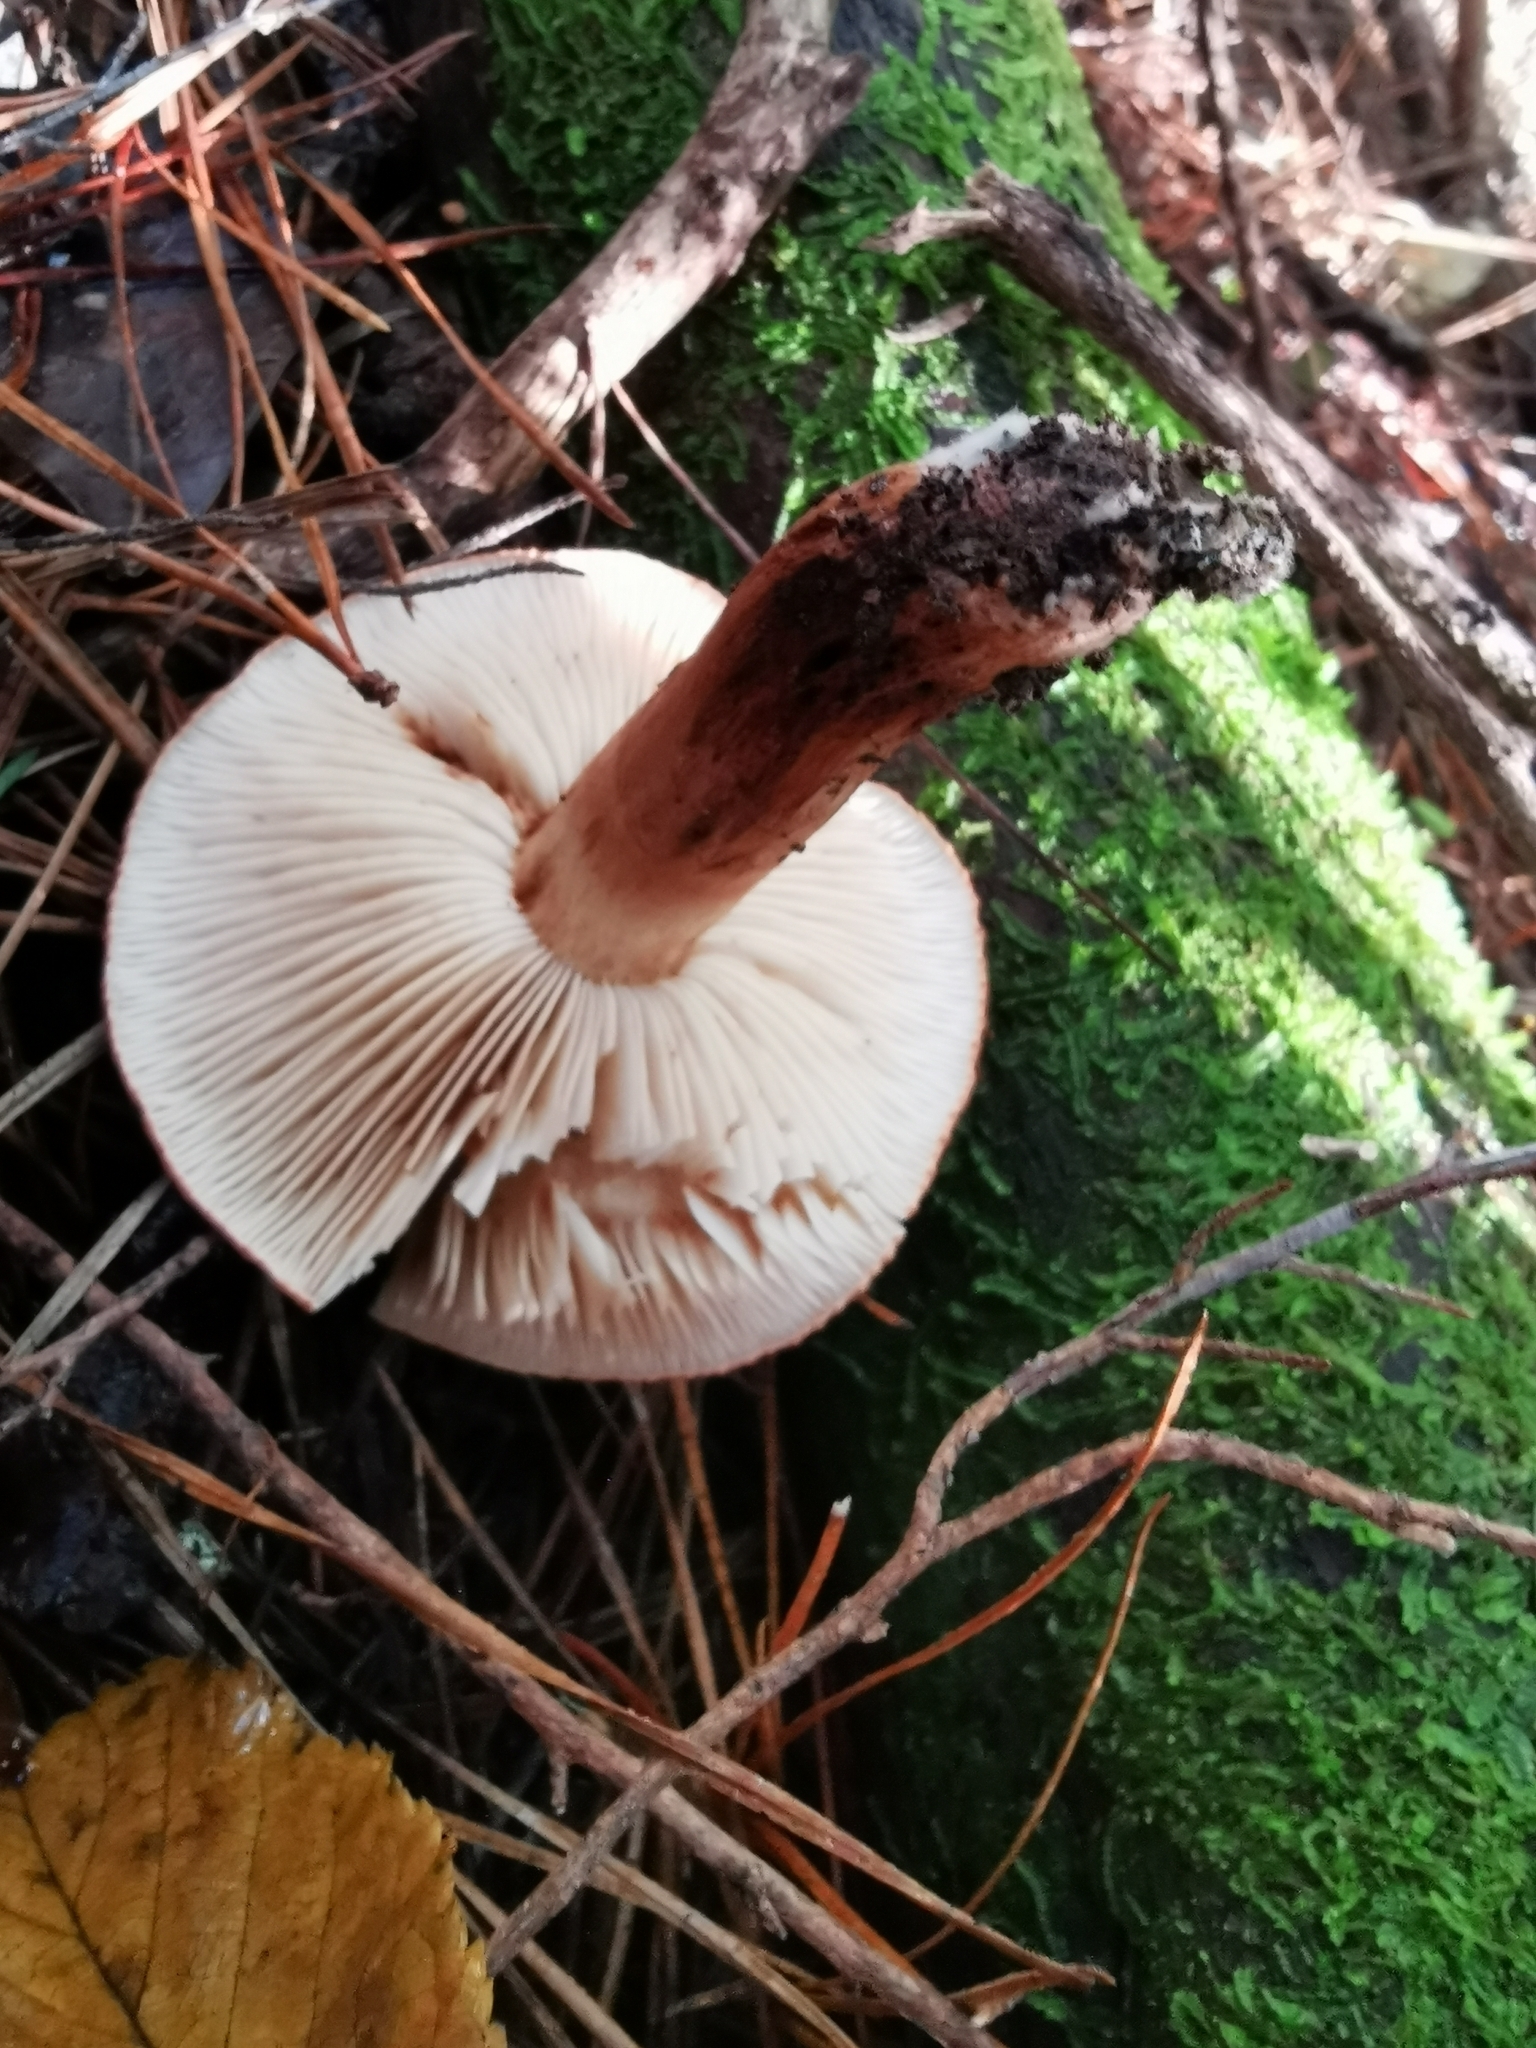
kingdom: Fungi
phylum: Basidiomycota
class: Agaricomycetes
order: Agaricales
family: Tricholomataceae
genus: Tricholoma
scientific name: Tricholoma batschii
